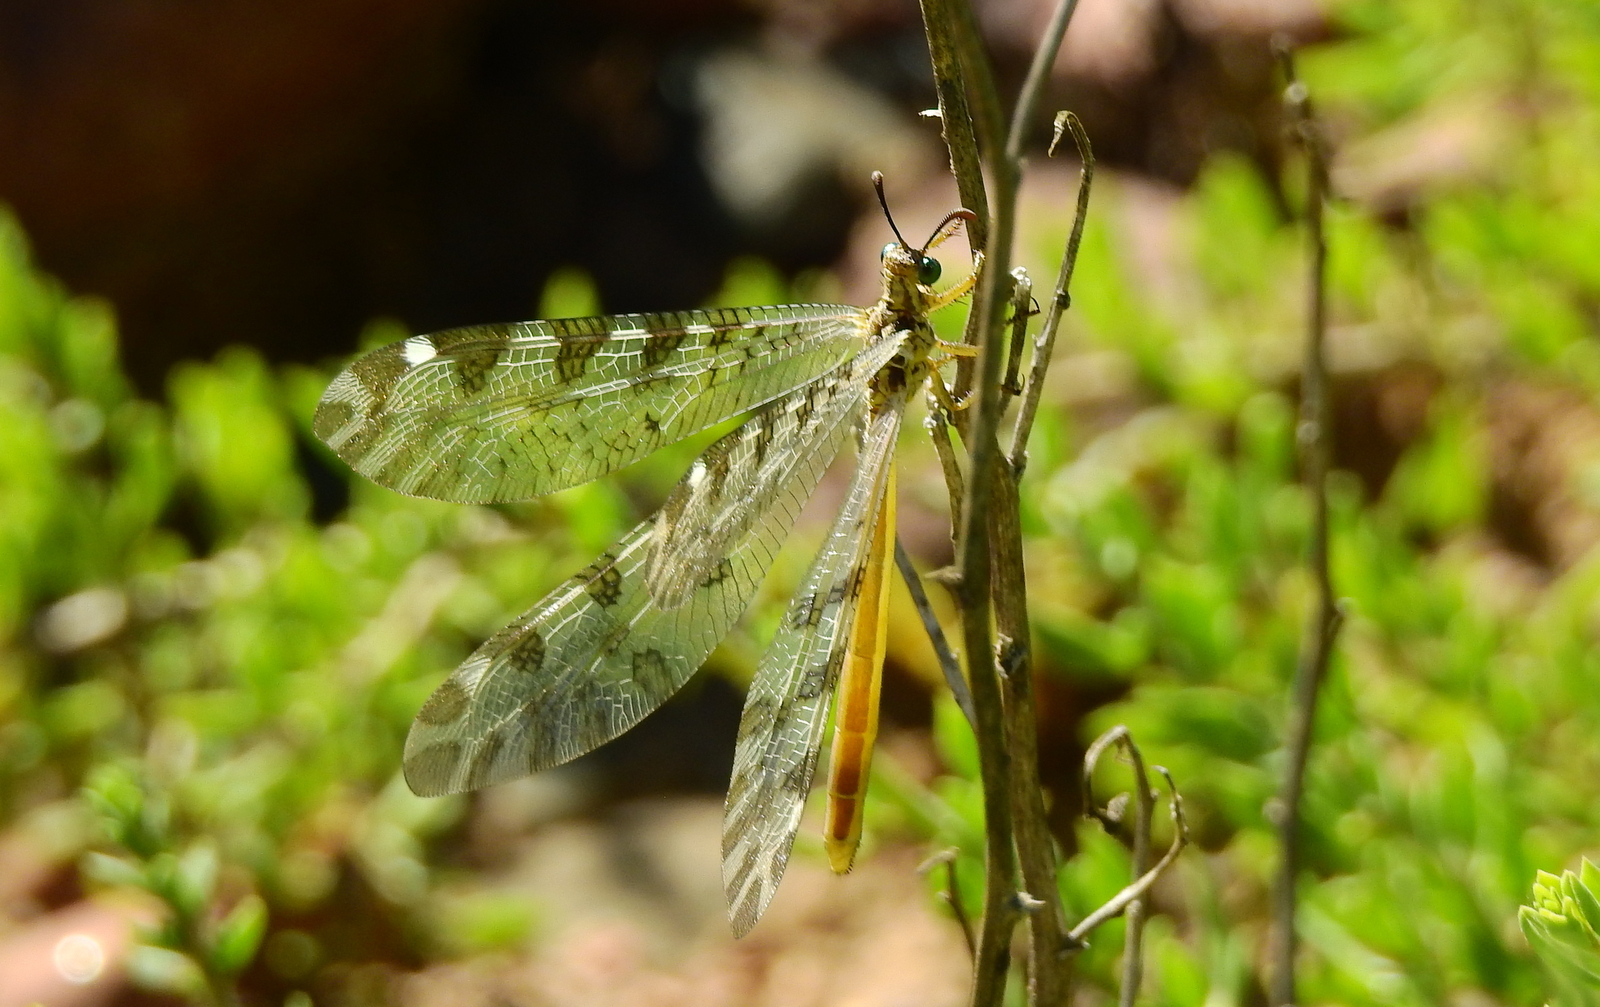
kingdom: Animalia
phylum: Arthropoda
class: Insecta
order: Neuroptera
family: Myrmeleontidae
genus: Dimares
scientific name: Dimares elegans
